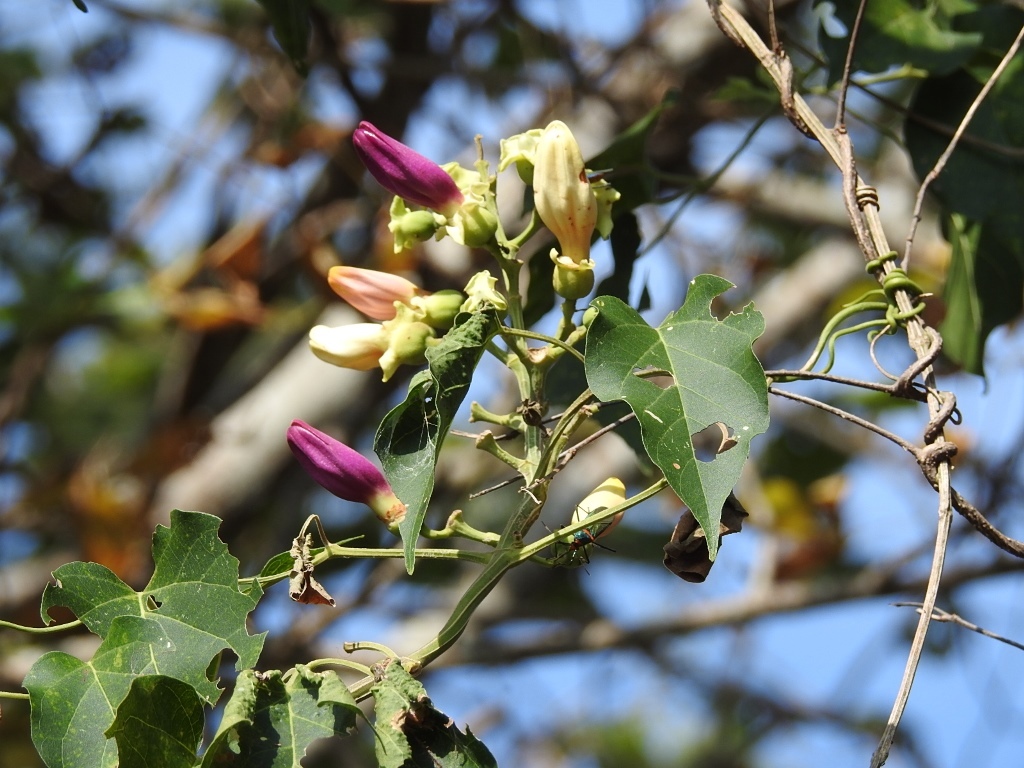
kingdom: Plantae
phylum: Tracheophyta
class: Magnoliopsida
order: Lamiales
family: Bignoniaceae
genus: Amphilophium
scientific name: Amphilophium paniculatum
